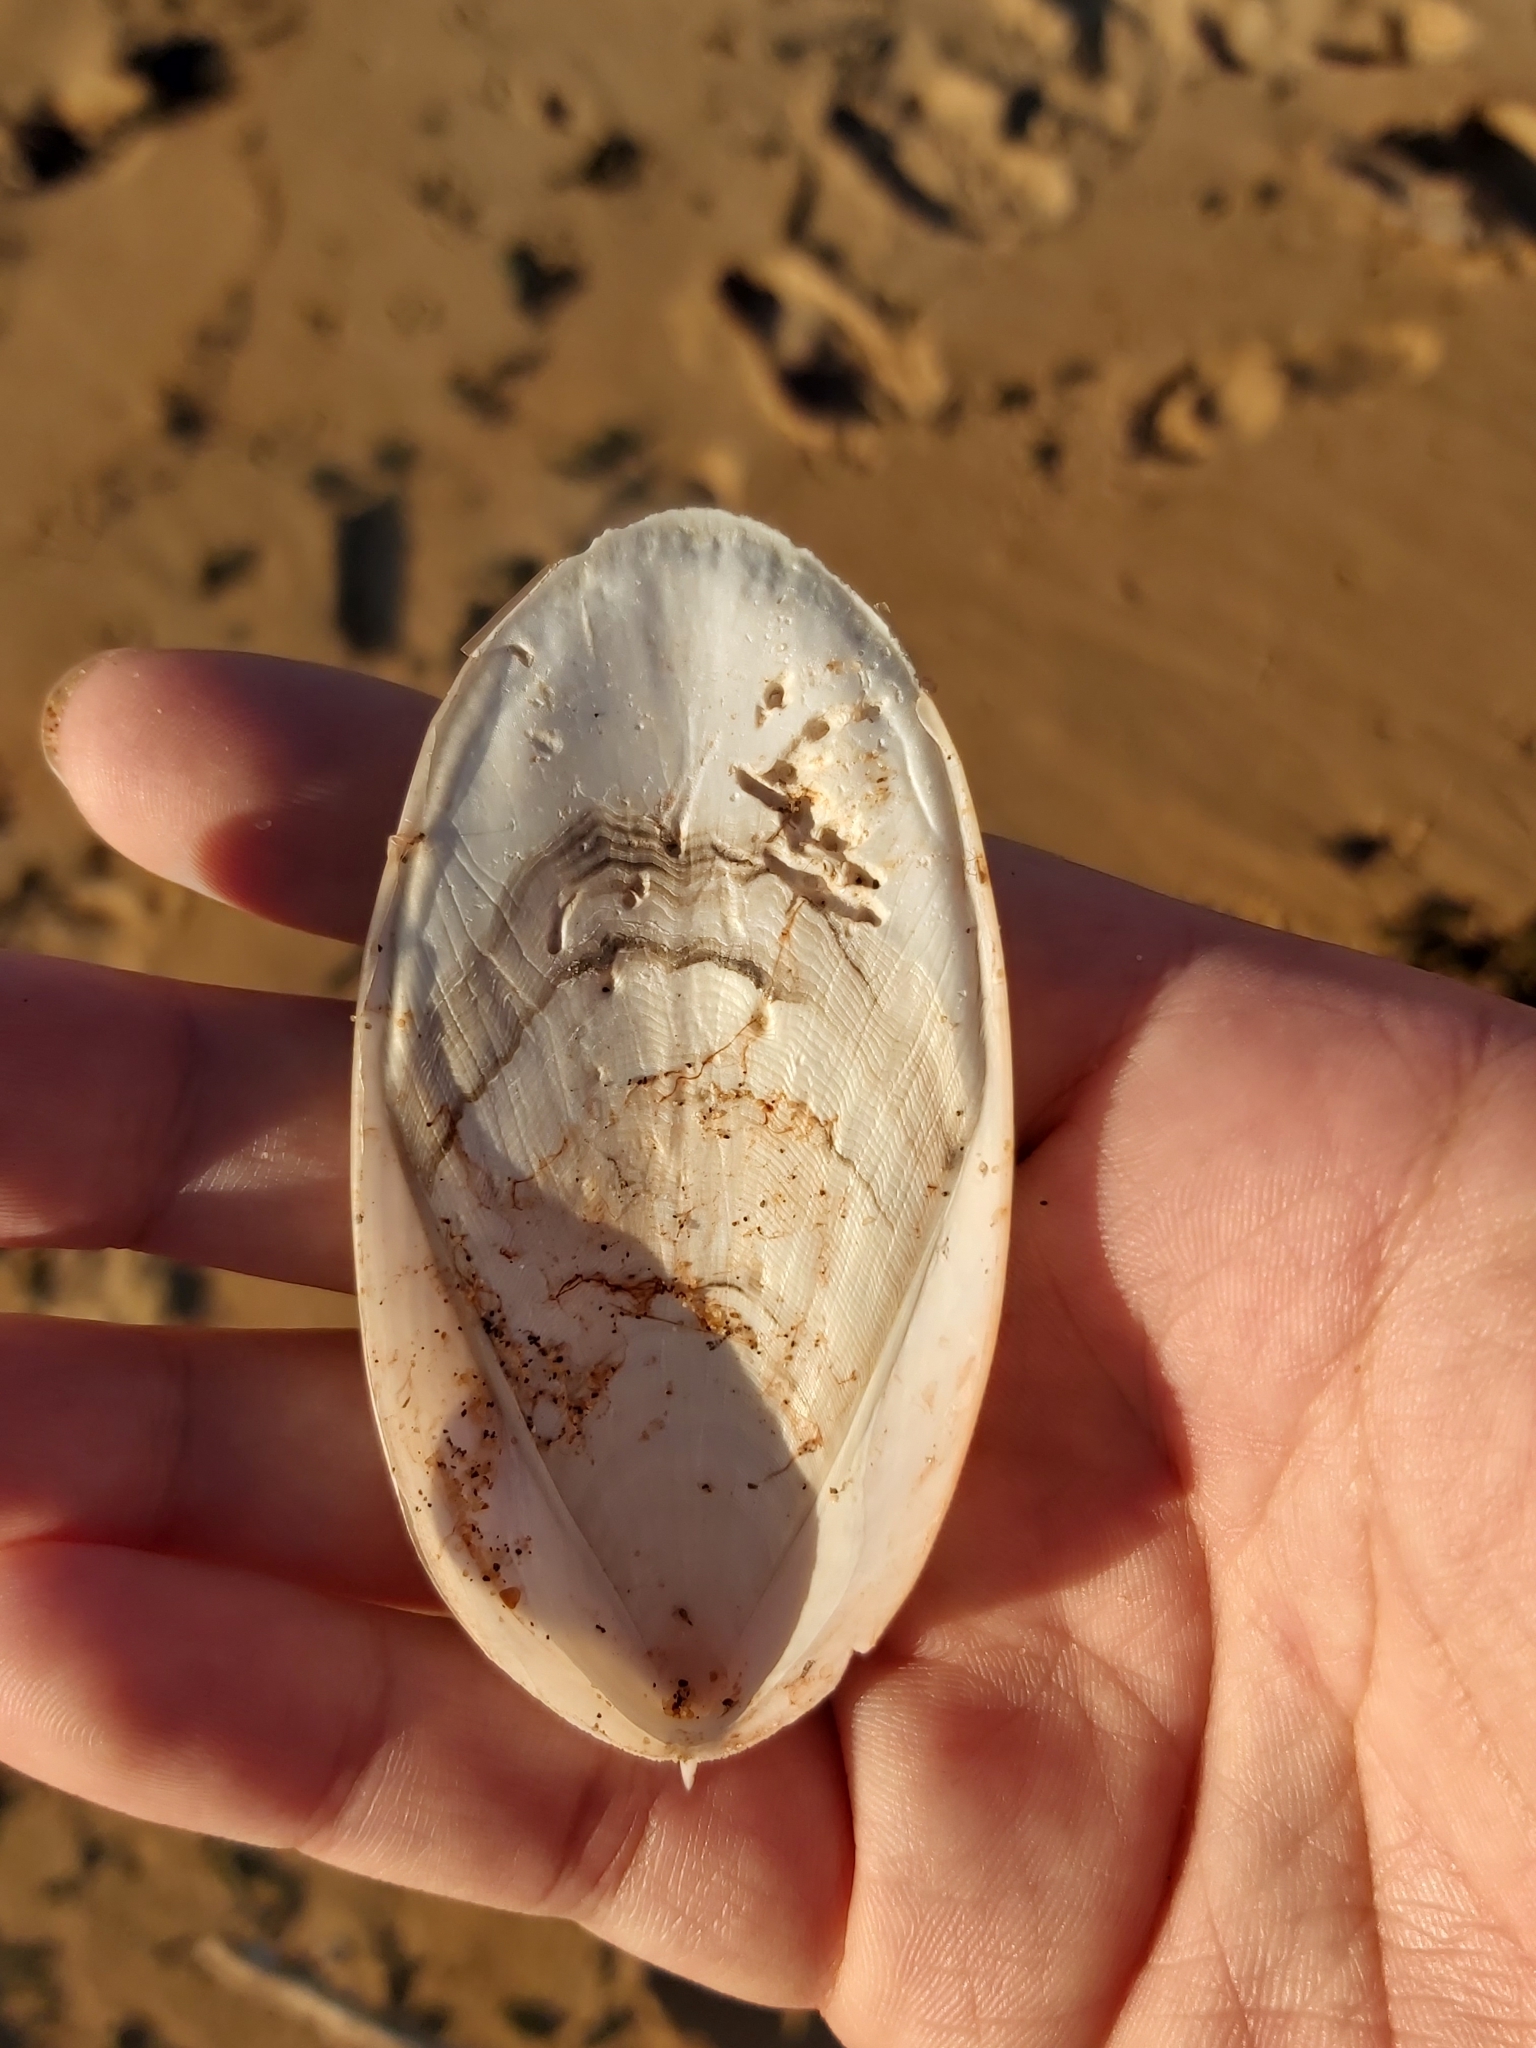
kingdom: Animalia
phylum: Mollusca
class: Cephalopoda
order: Sepiida
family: Sepiidae
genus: Ascarosepion
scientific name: Ascarosepion mestus
